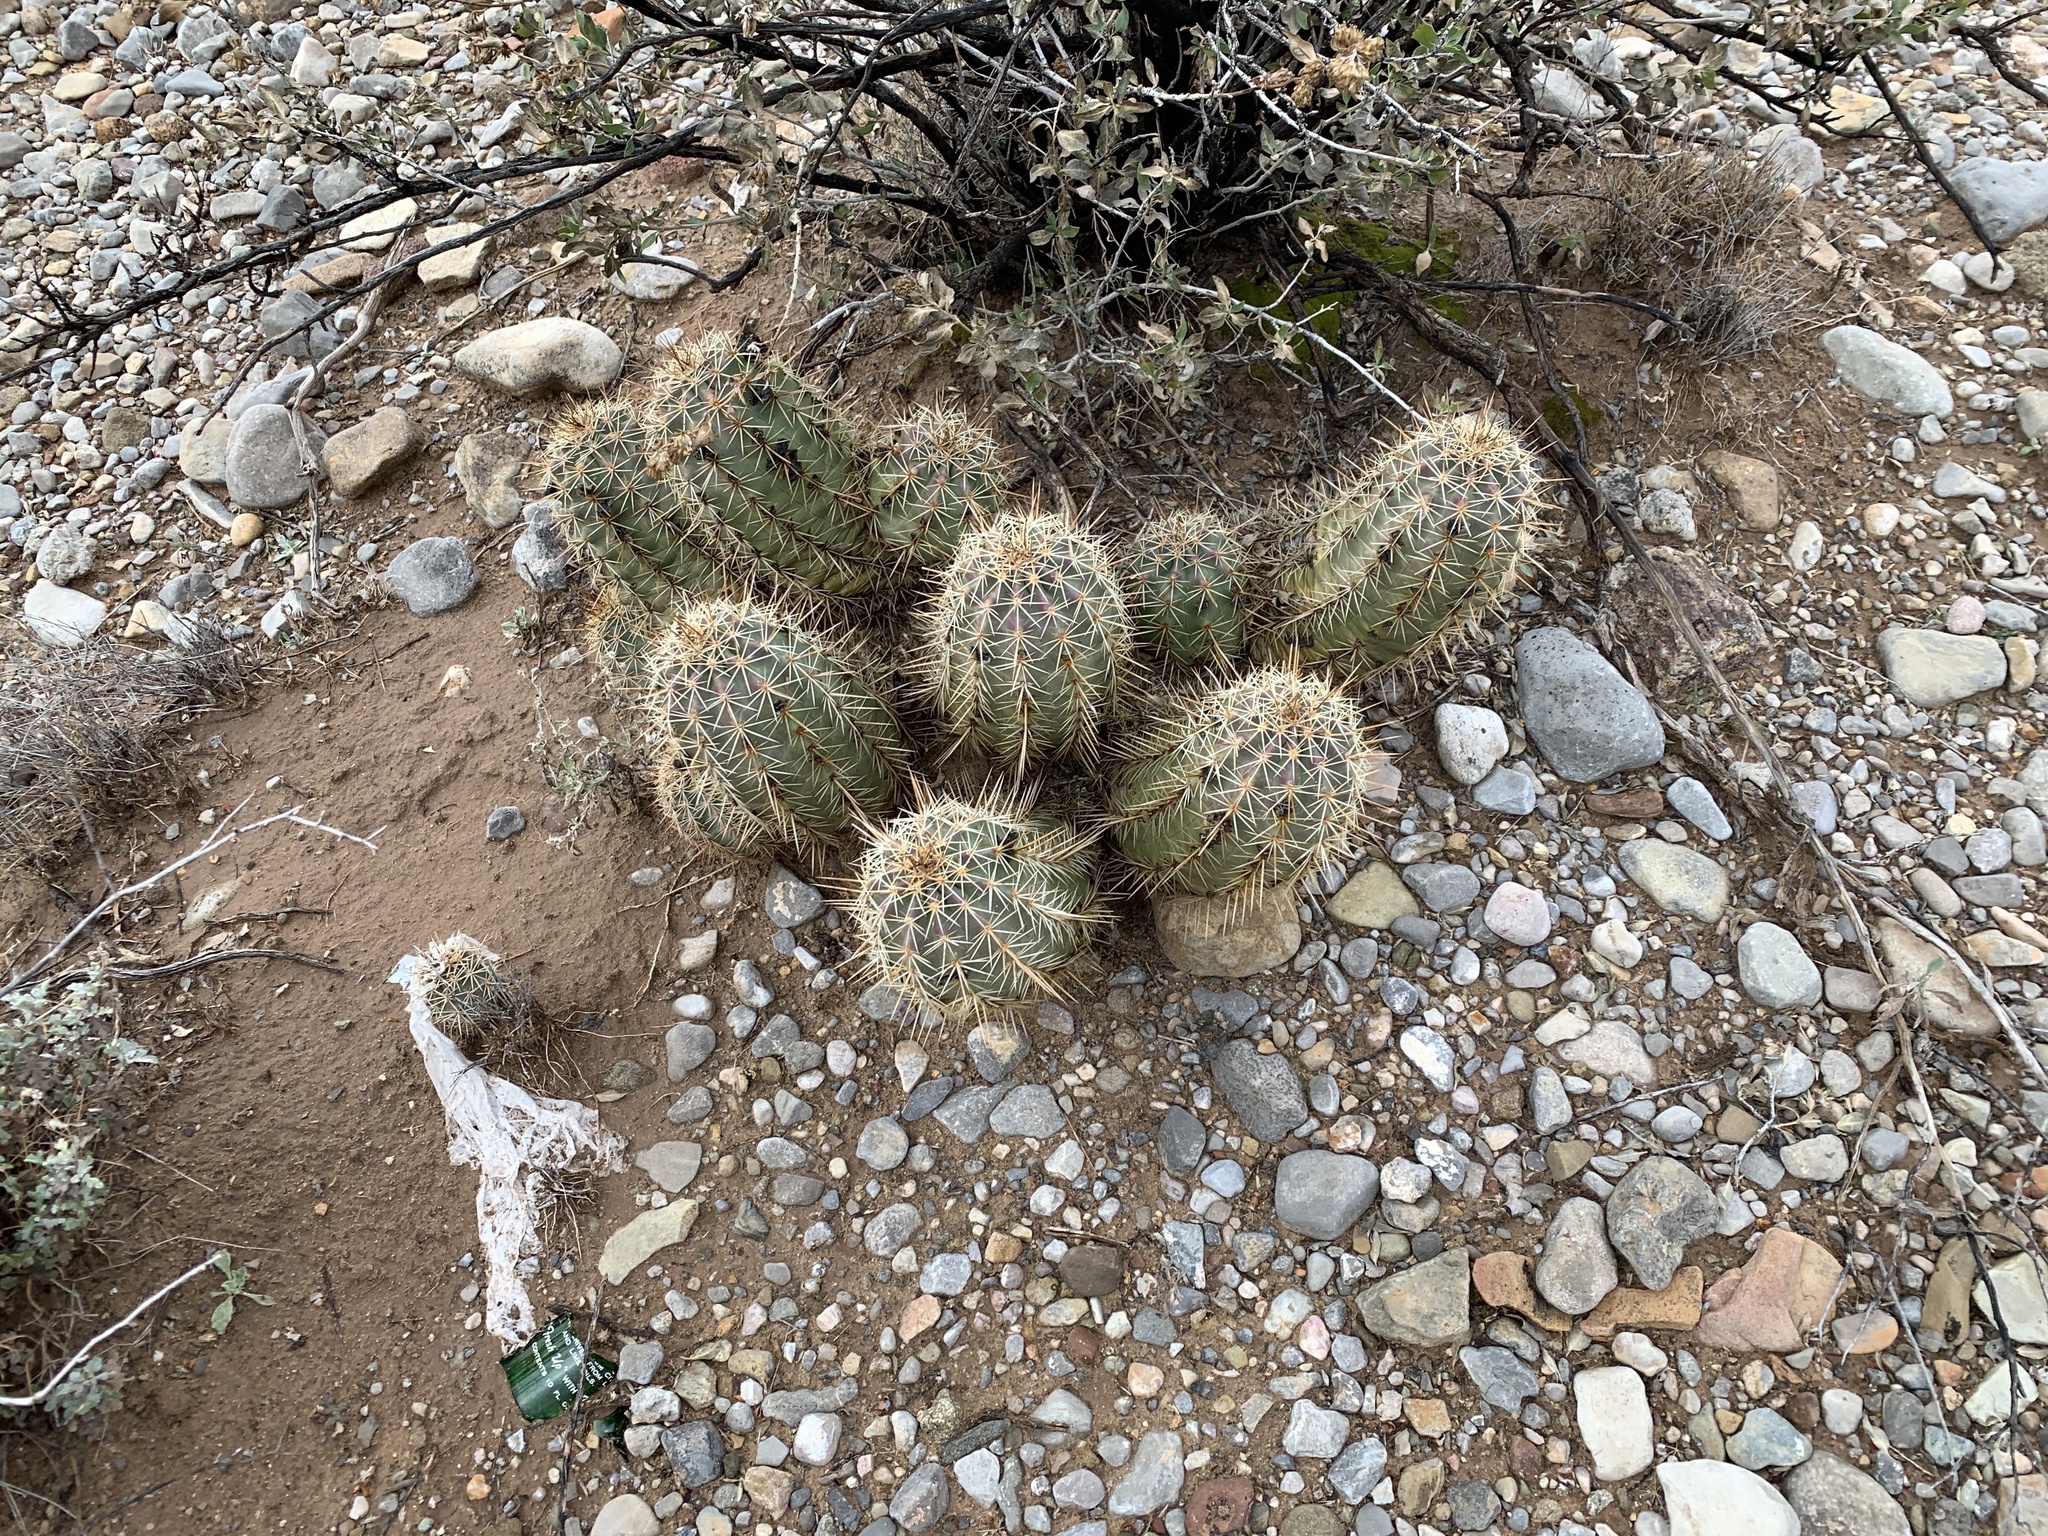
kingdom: Plantae
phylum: Tracheophyta
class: Magnoliopsida
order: Caryophyllales
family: Cactaceae
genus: Echinocereus
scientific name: Echinocereus coccineus
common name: Scarlet hedgehog cactus
